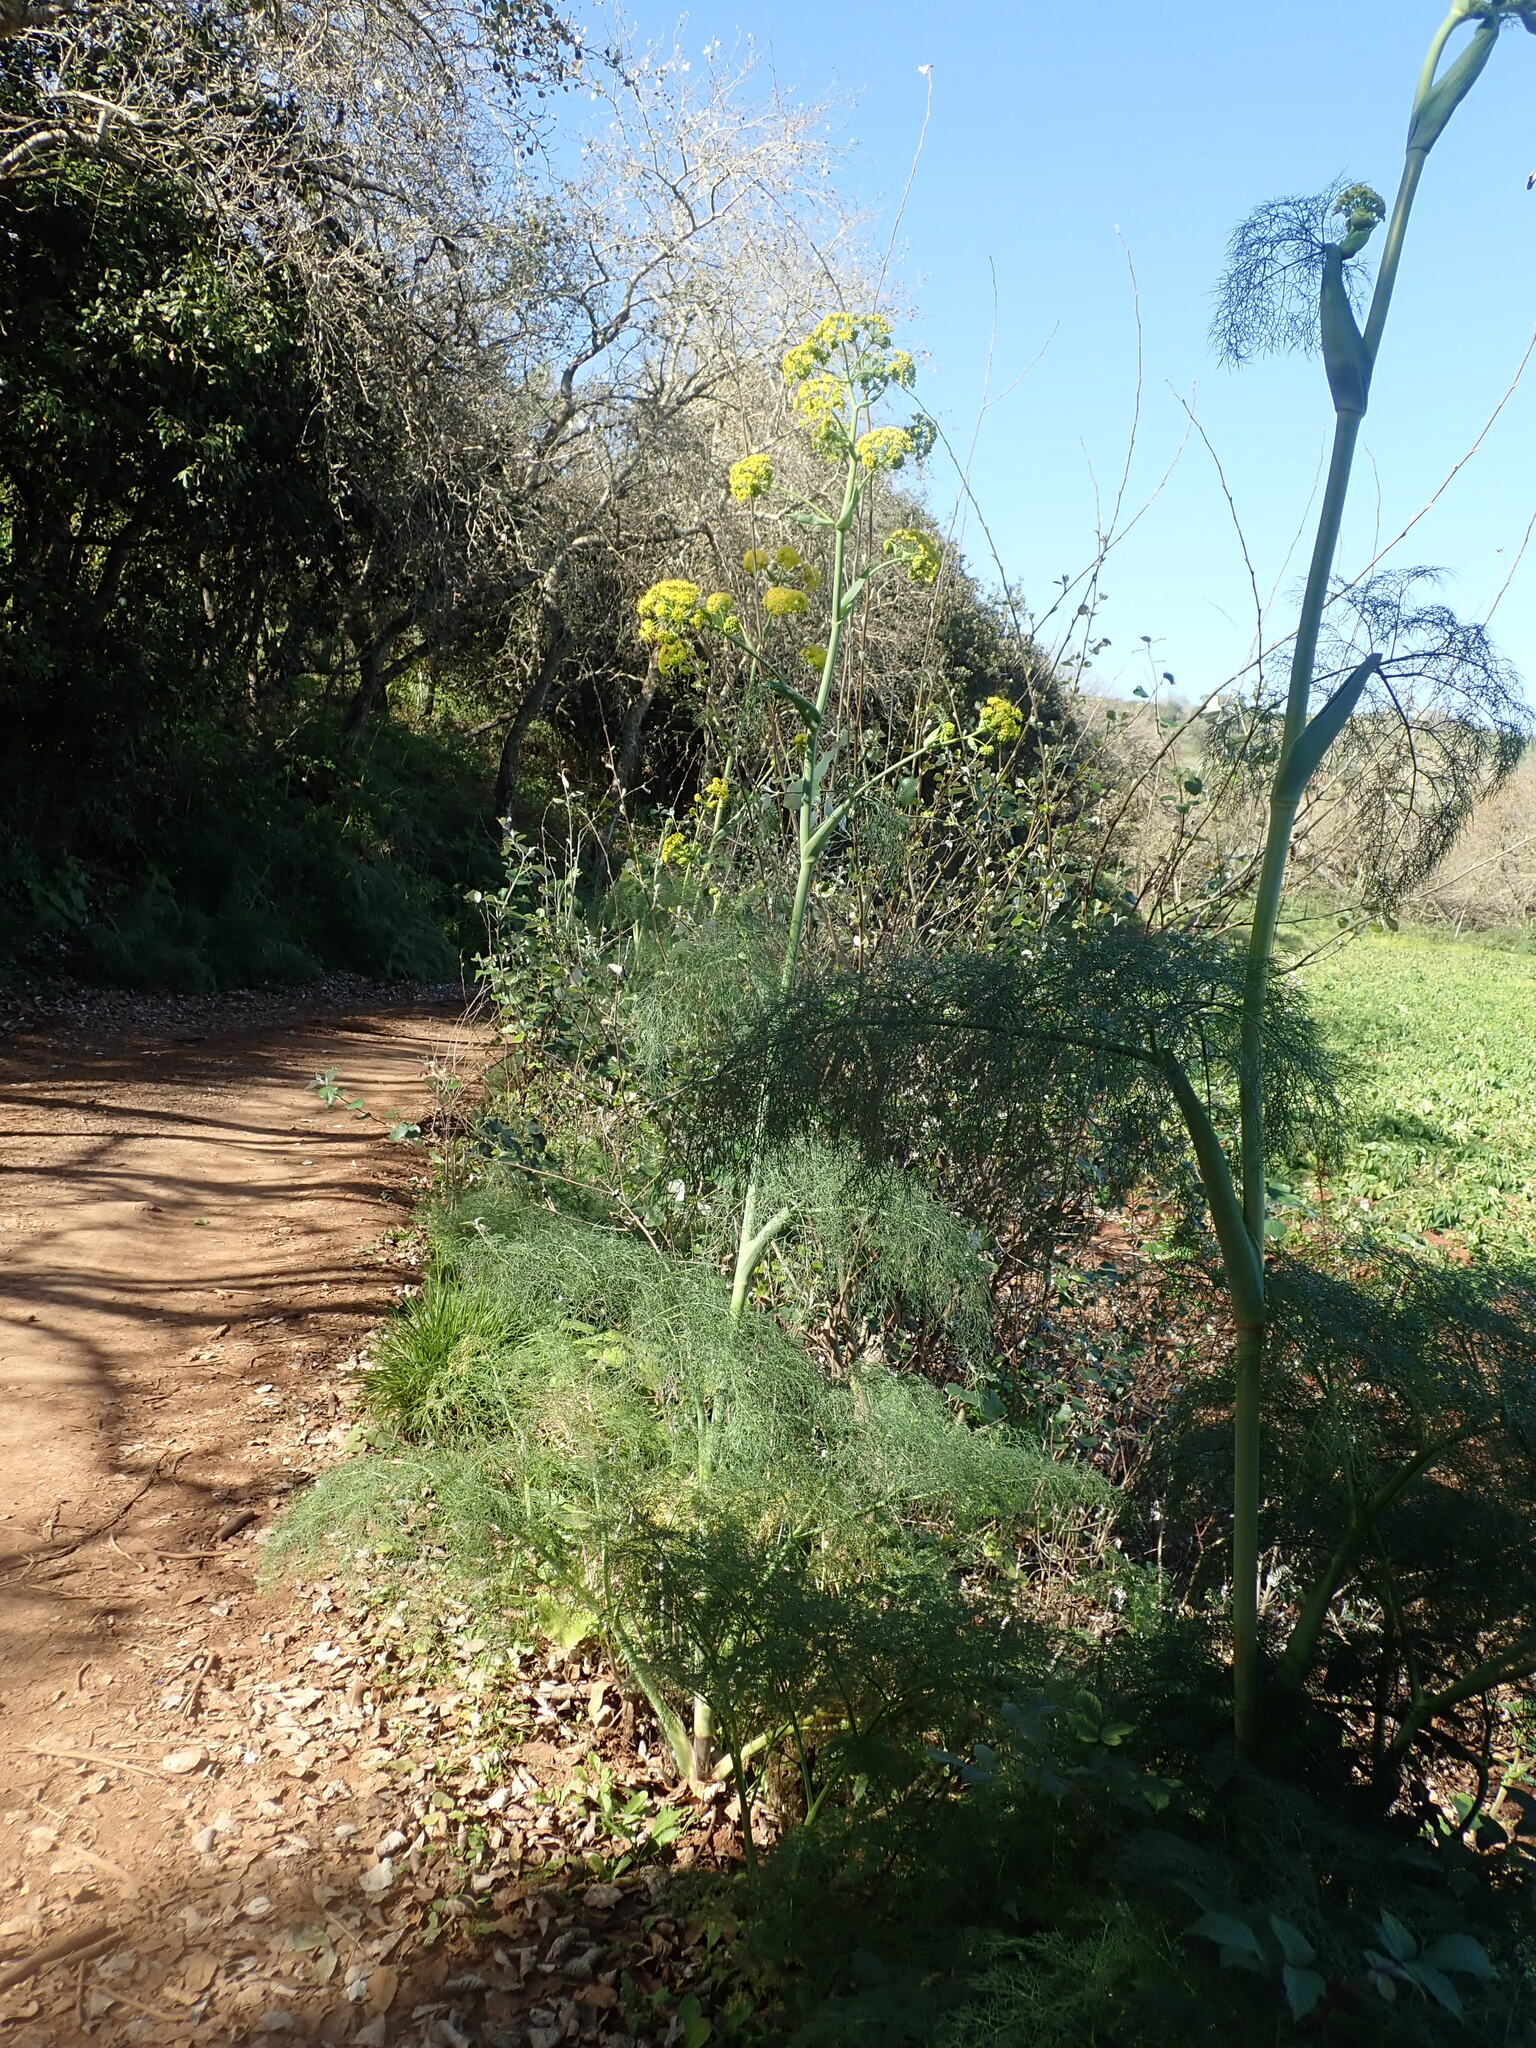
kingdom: Plantae
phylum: Tracheophyta
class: Magnoliopsida
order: Apiales
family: Apiaceae
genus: Ferula
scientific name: Ferula communis
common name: Giant fennel
